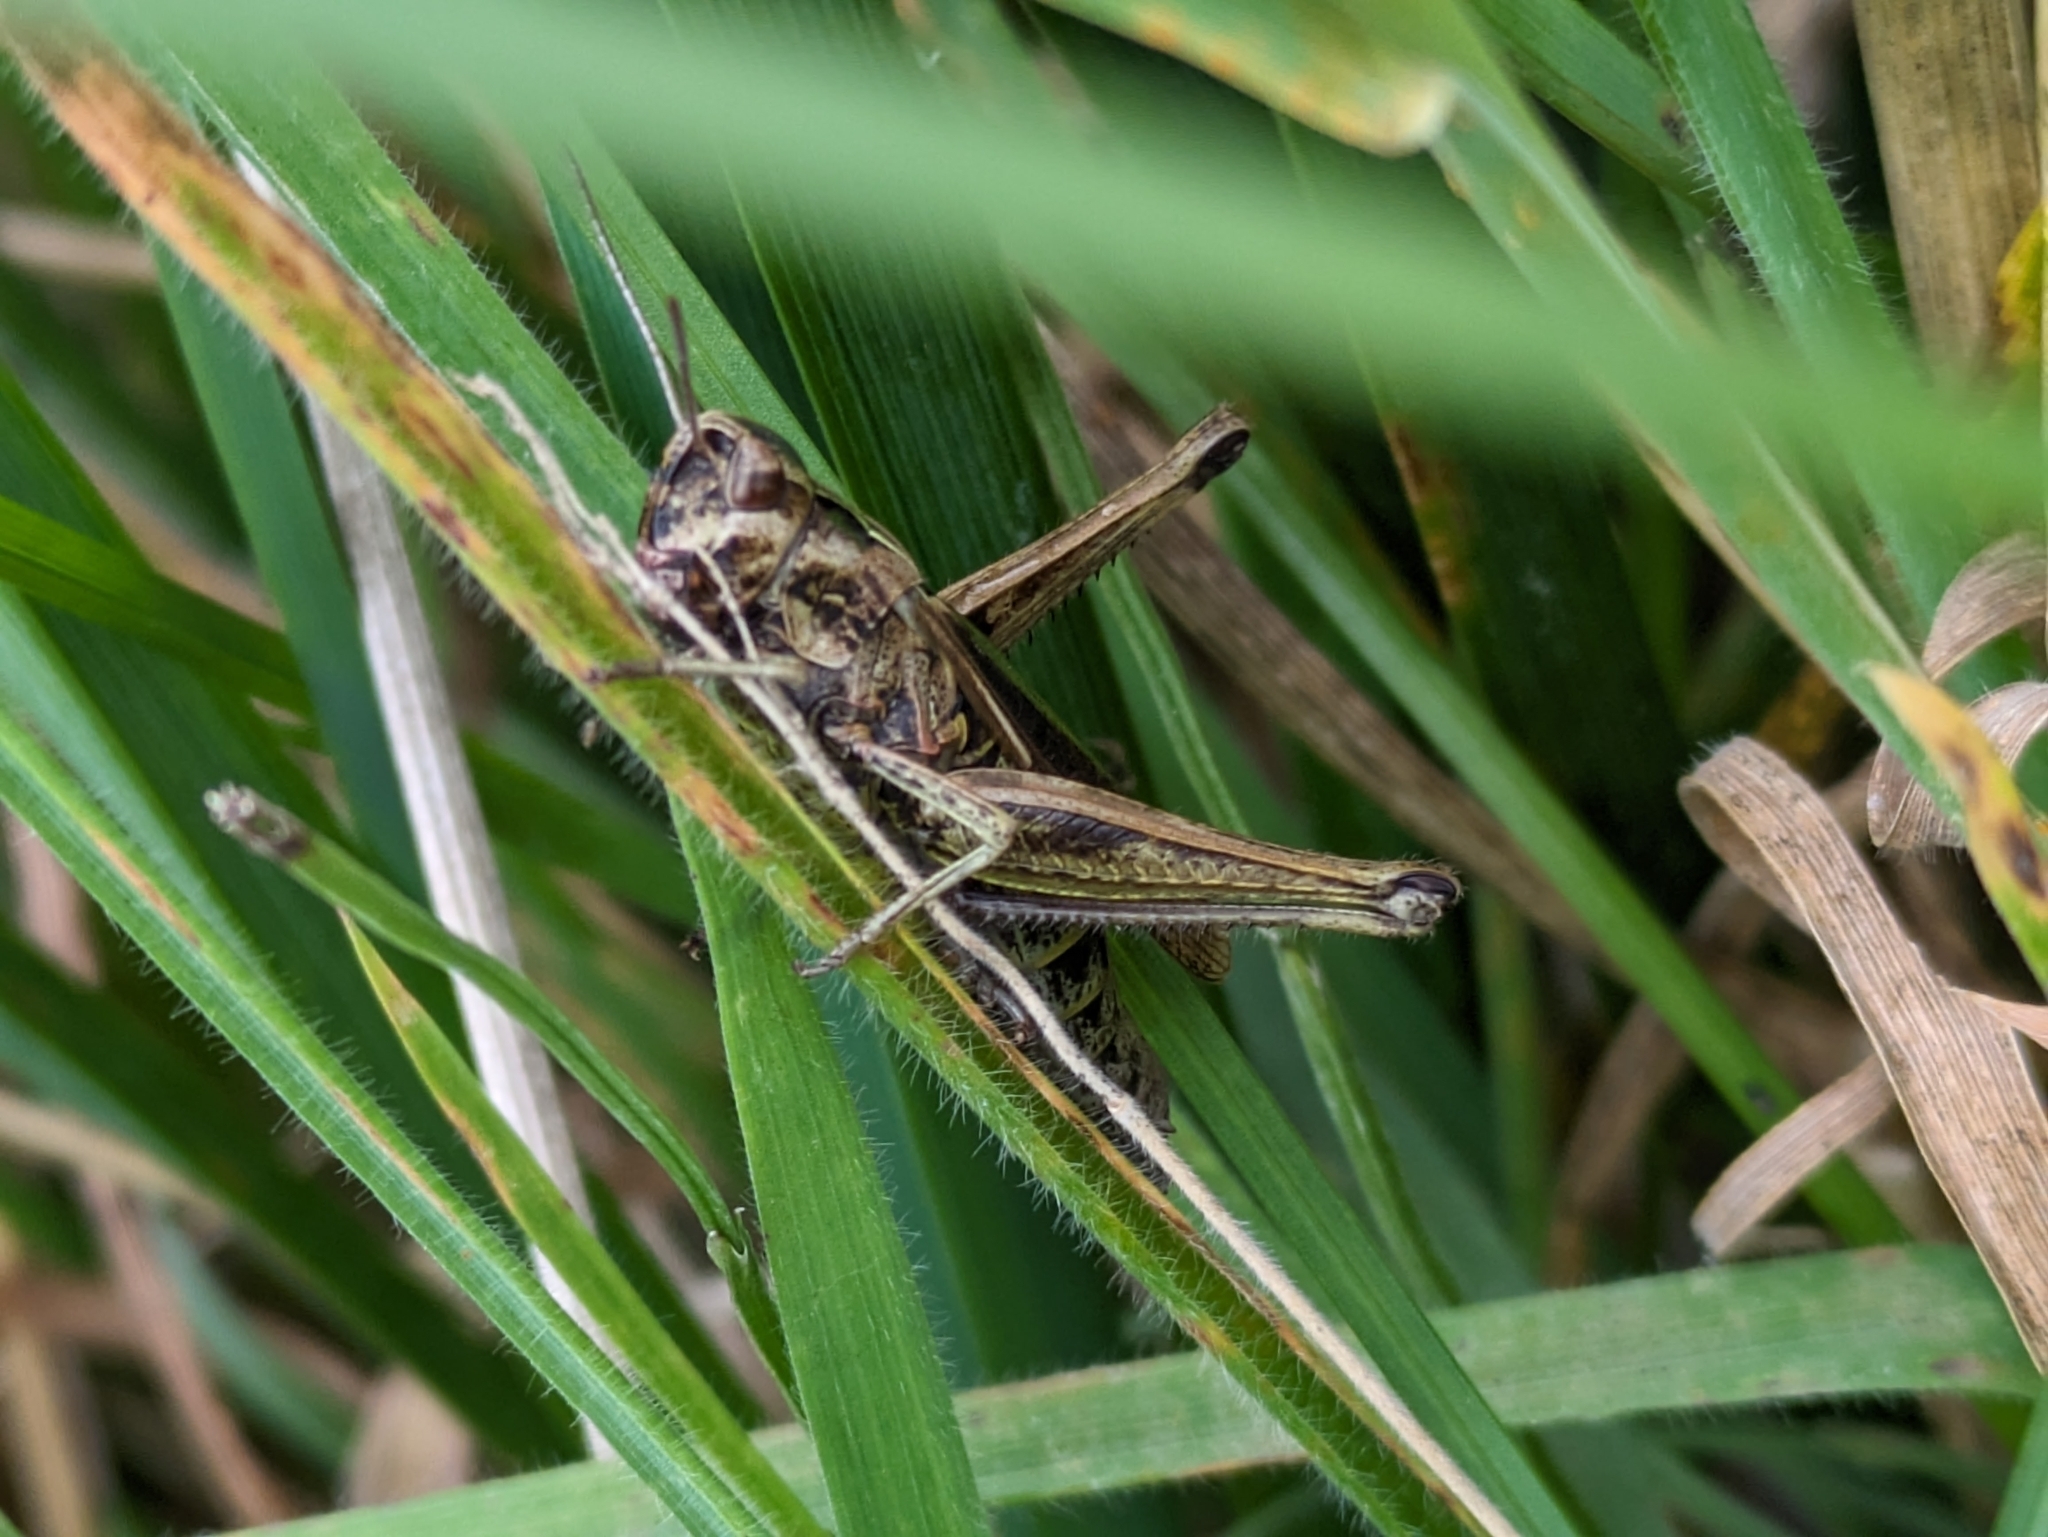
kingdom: Animalia
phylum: Arthropoda
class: Insecta
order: Orthoptera
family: Acrididae
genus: Chorthippus
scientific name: Chorthippus brunneus
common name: Field grasshopper
